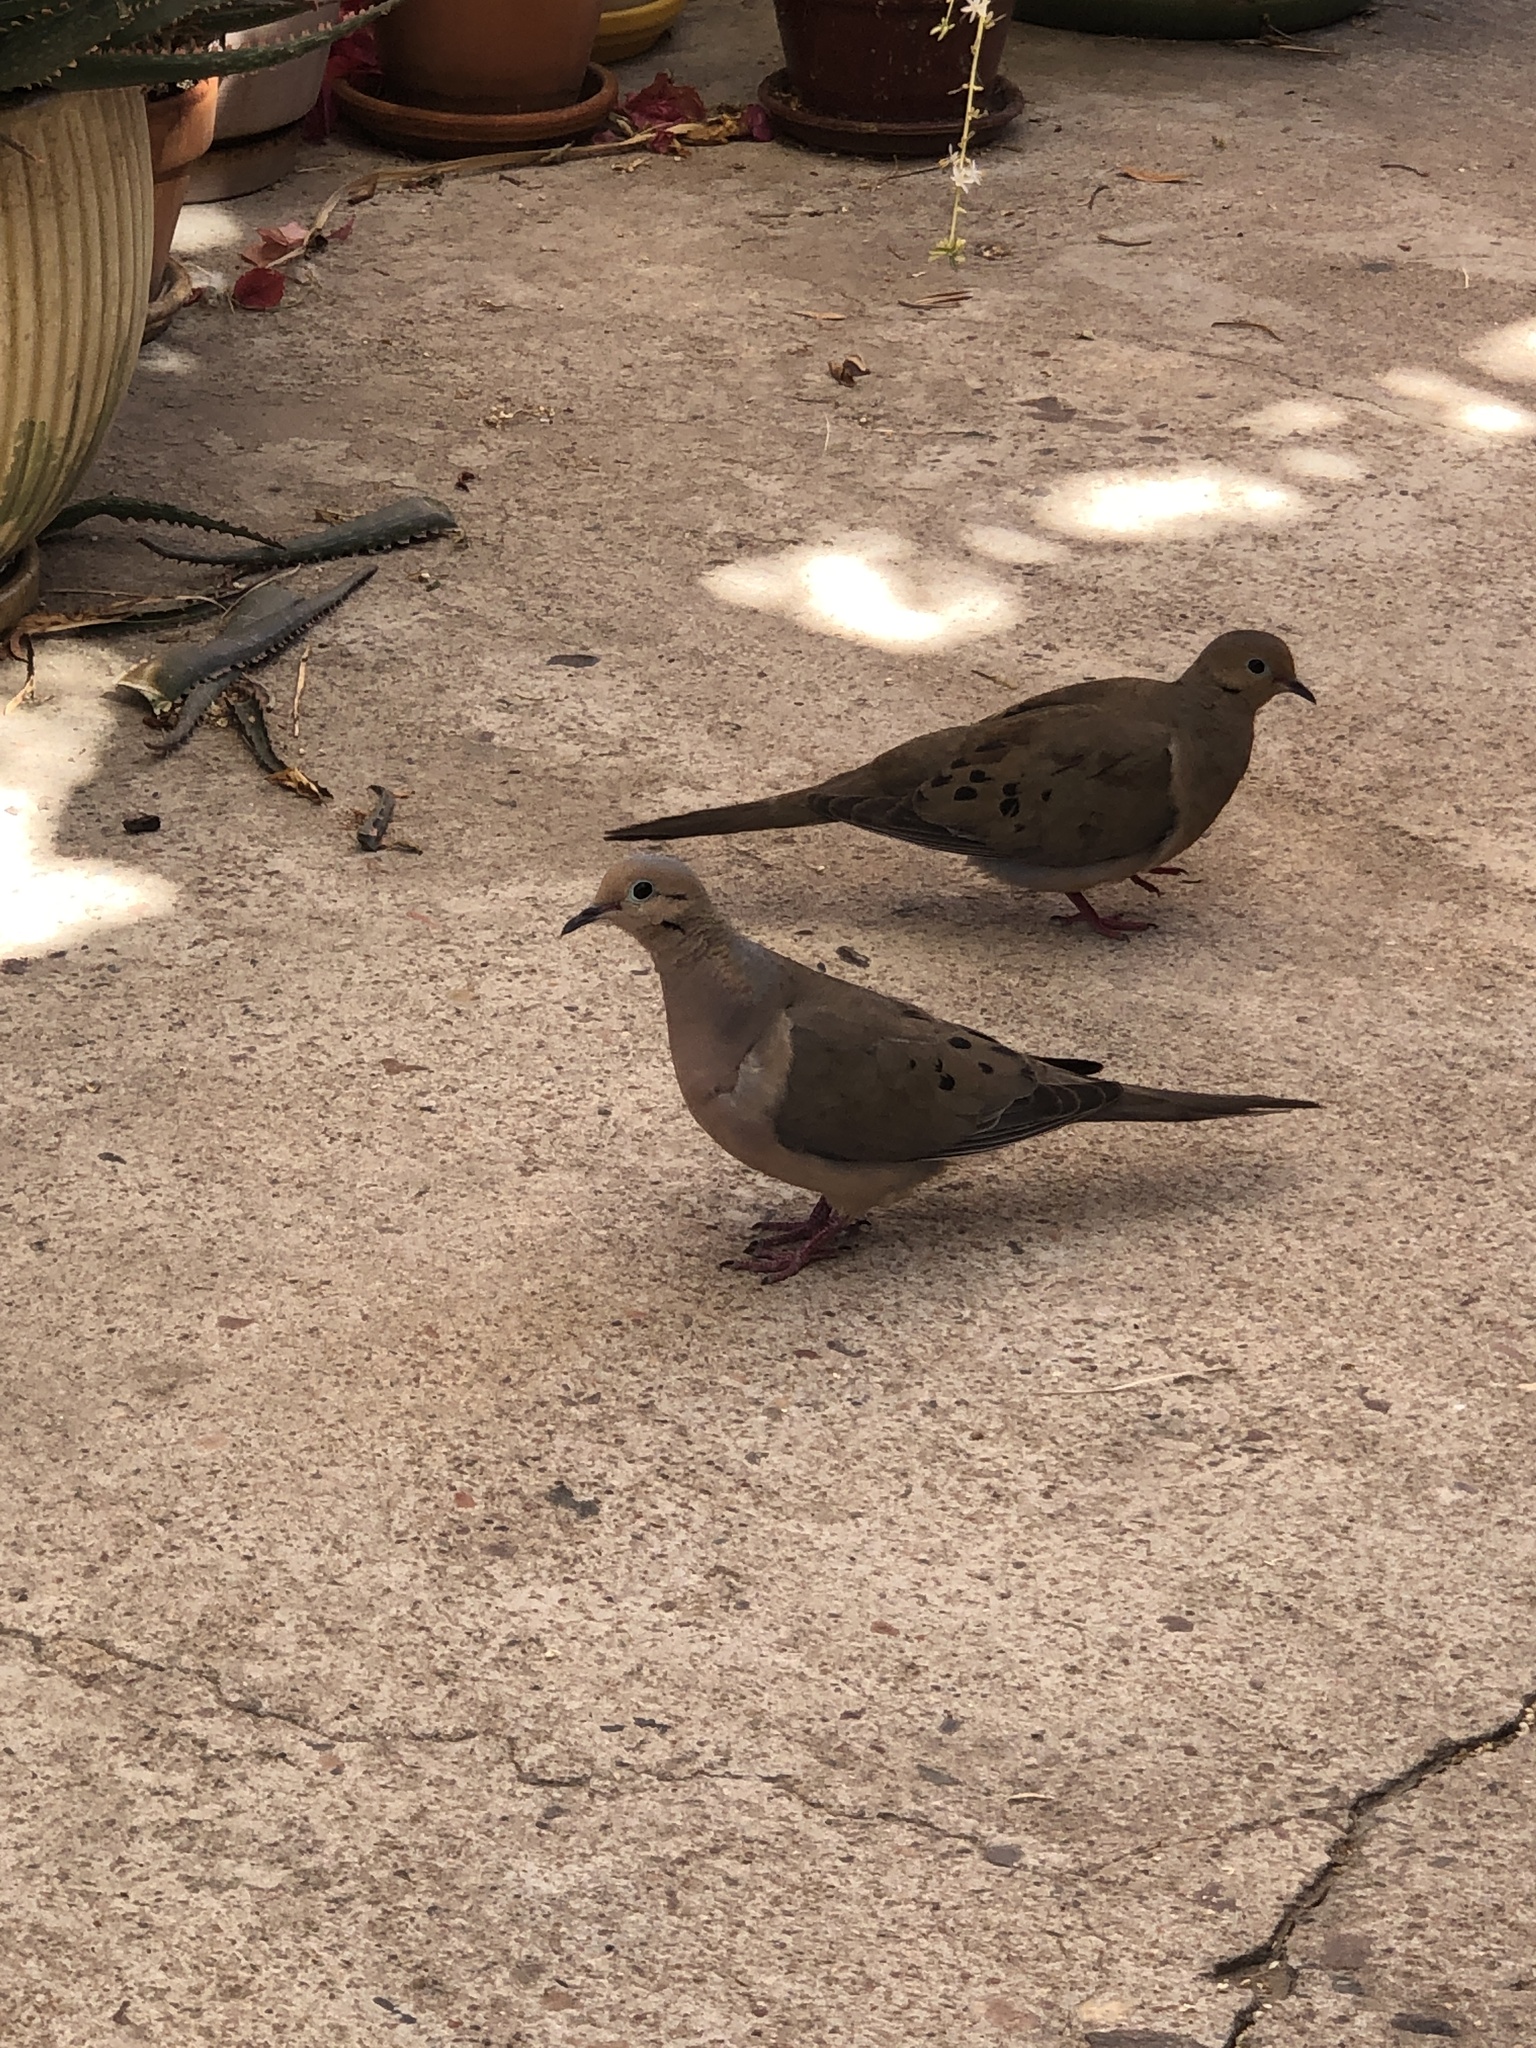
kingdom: Animalia
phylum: Chordata
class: Aves
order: Columbiformes
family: Columbidae
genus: Zenaida
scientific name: Zenaida macroura
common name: Mourning dove
